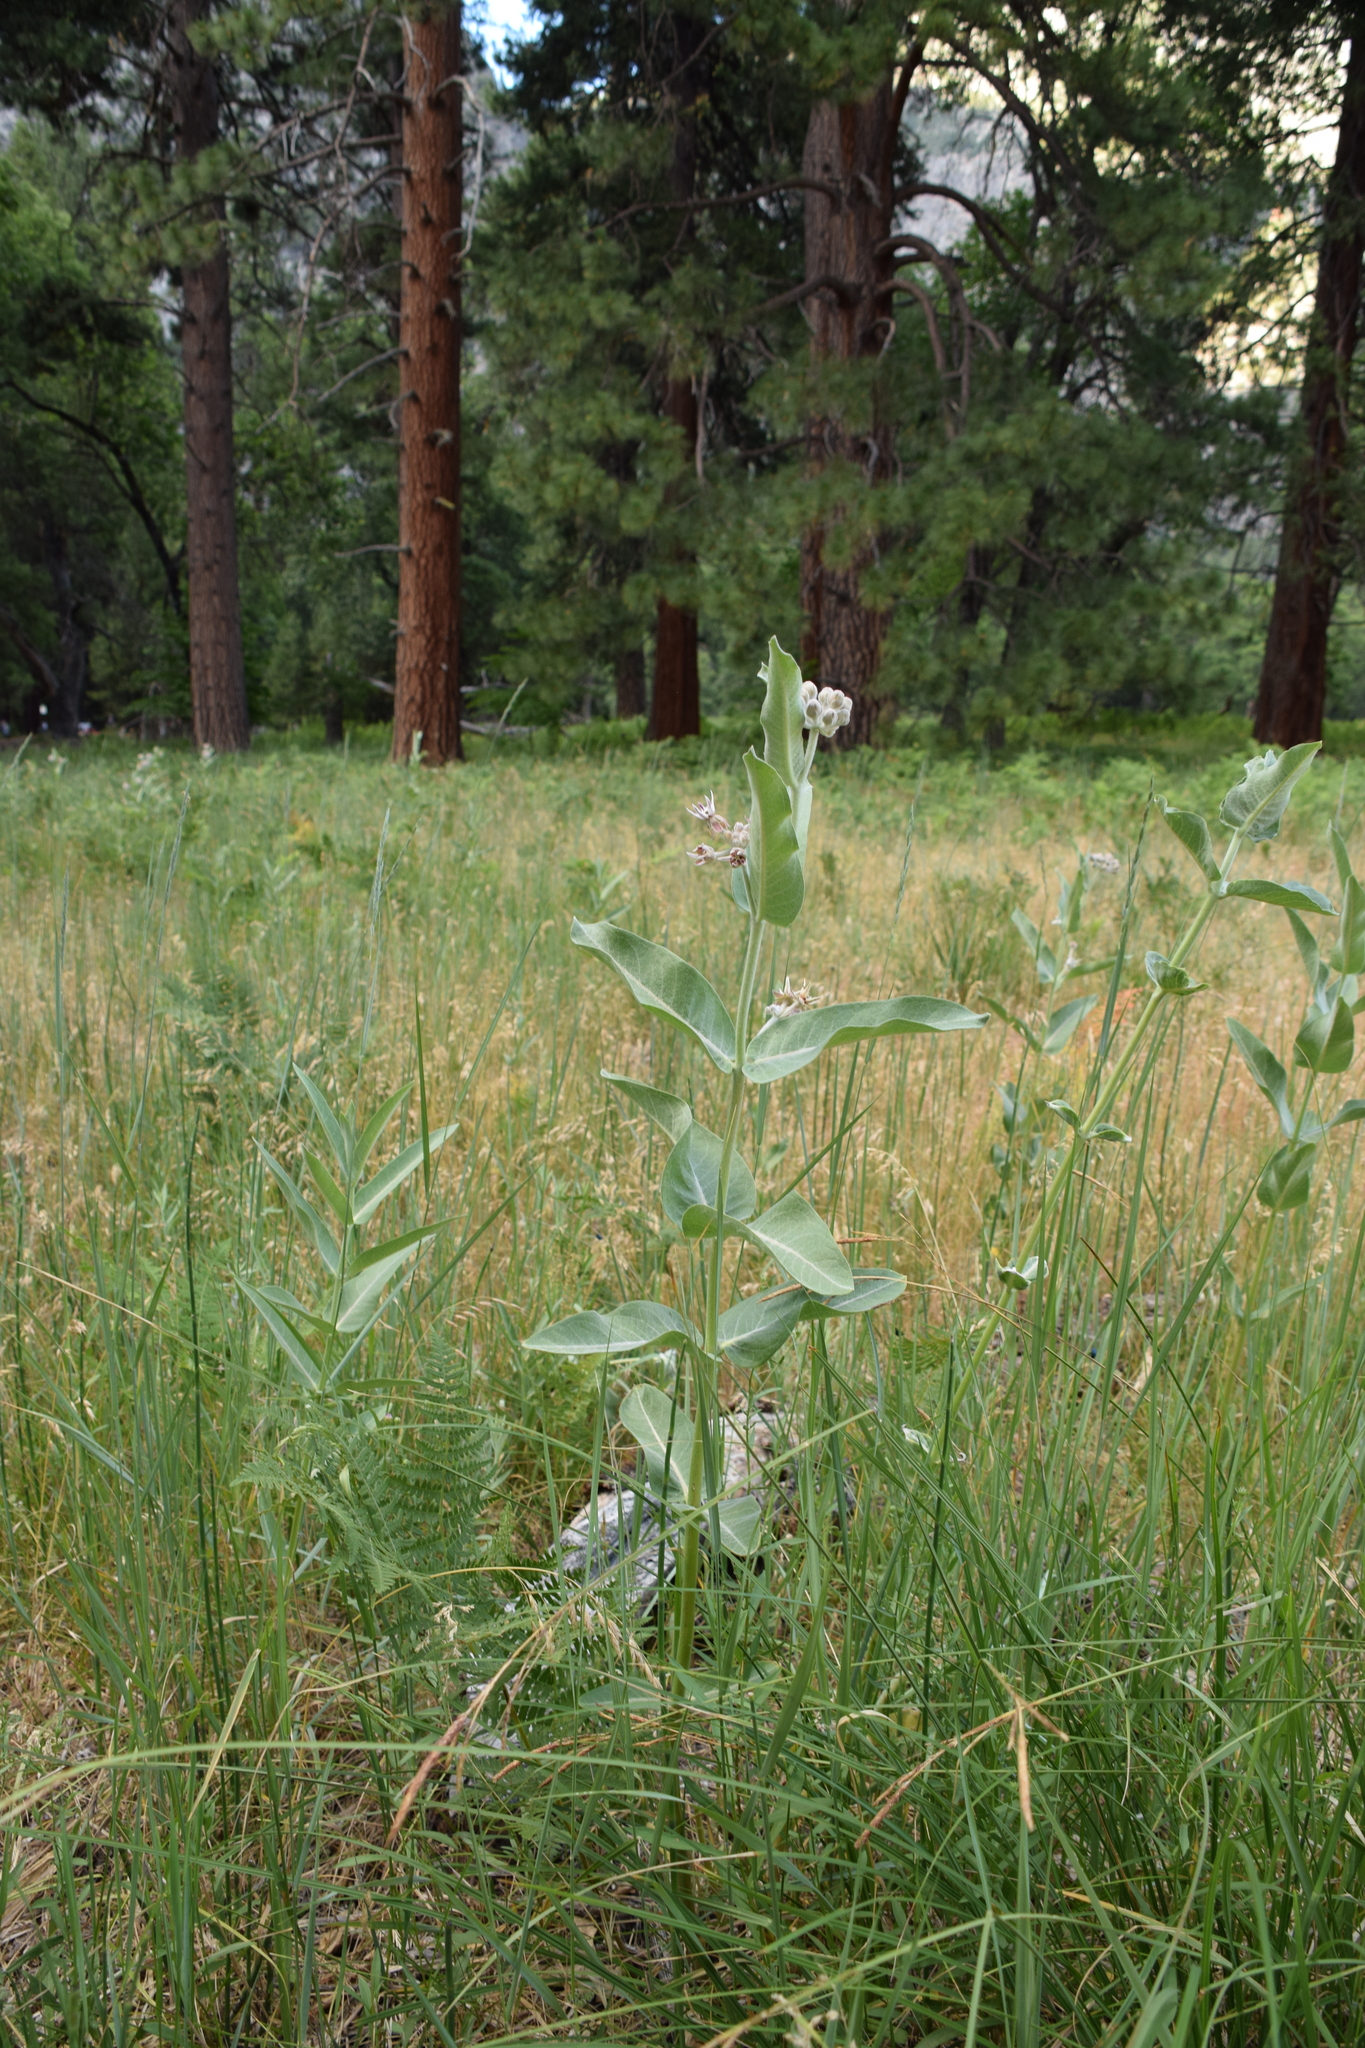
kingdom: Plantae
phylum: Tracheophyta
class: Magnoliopsida
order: Gentianales
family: Apocynaceae
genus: Asclepias
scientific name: Asclepias speciosa
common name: Showy milkweed
